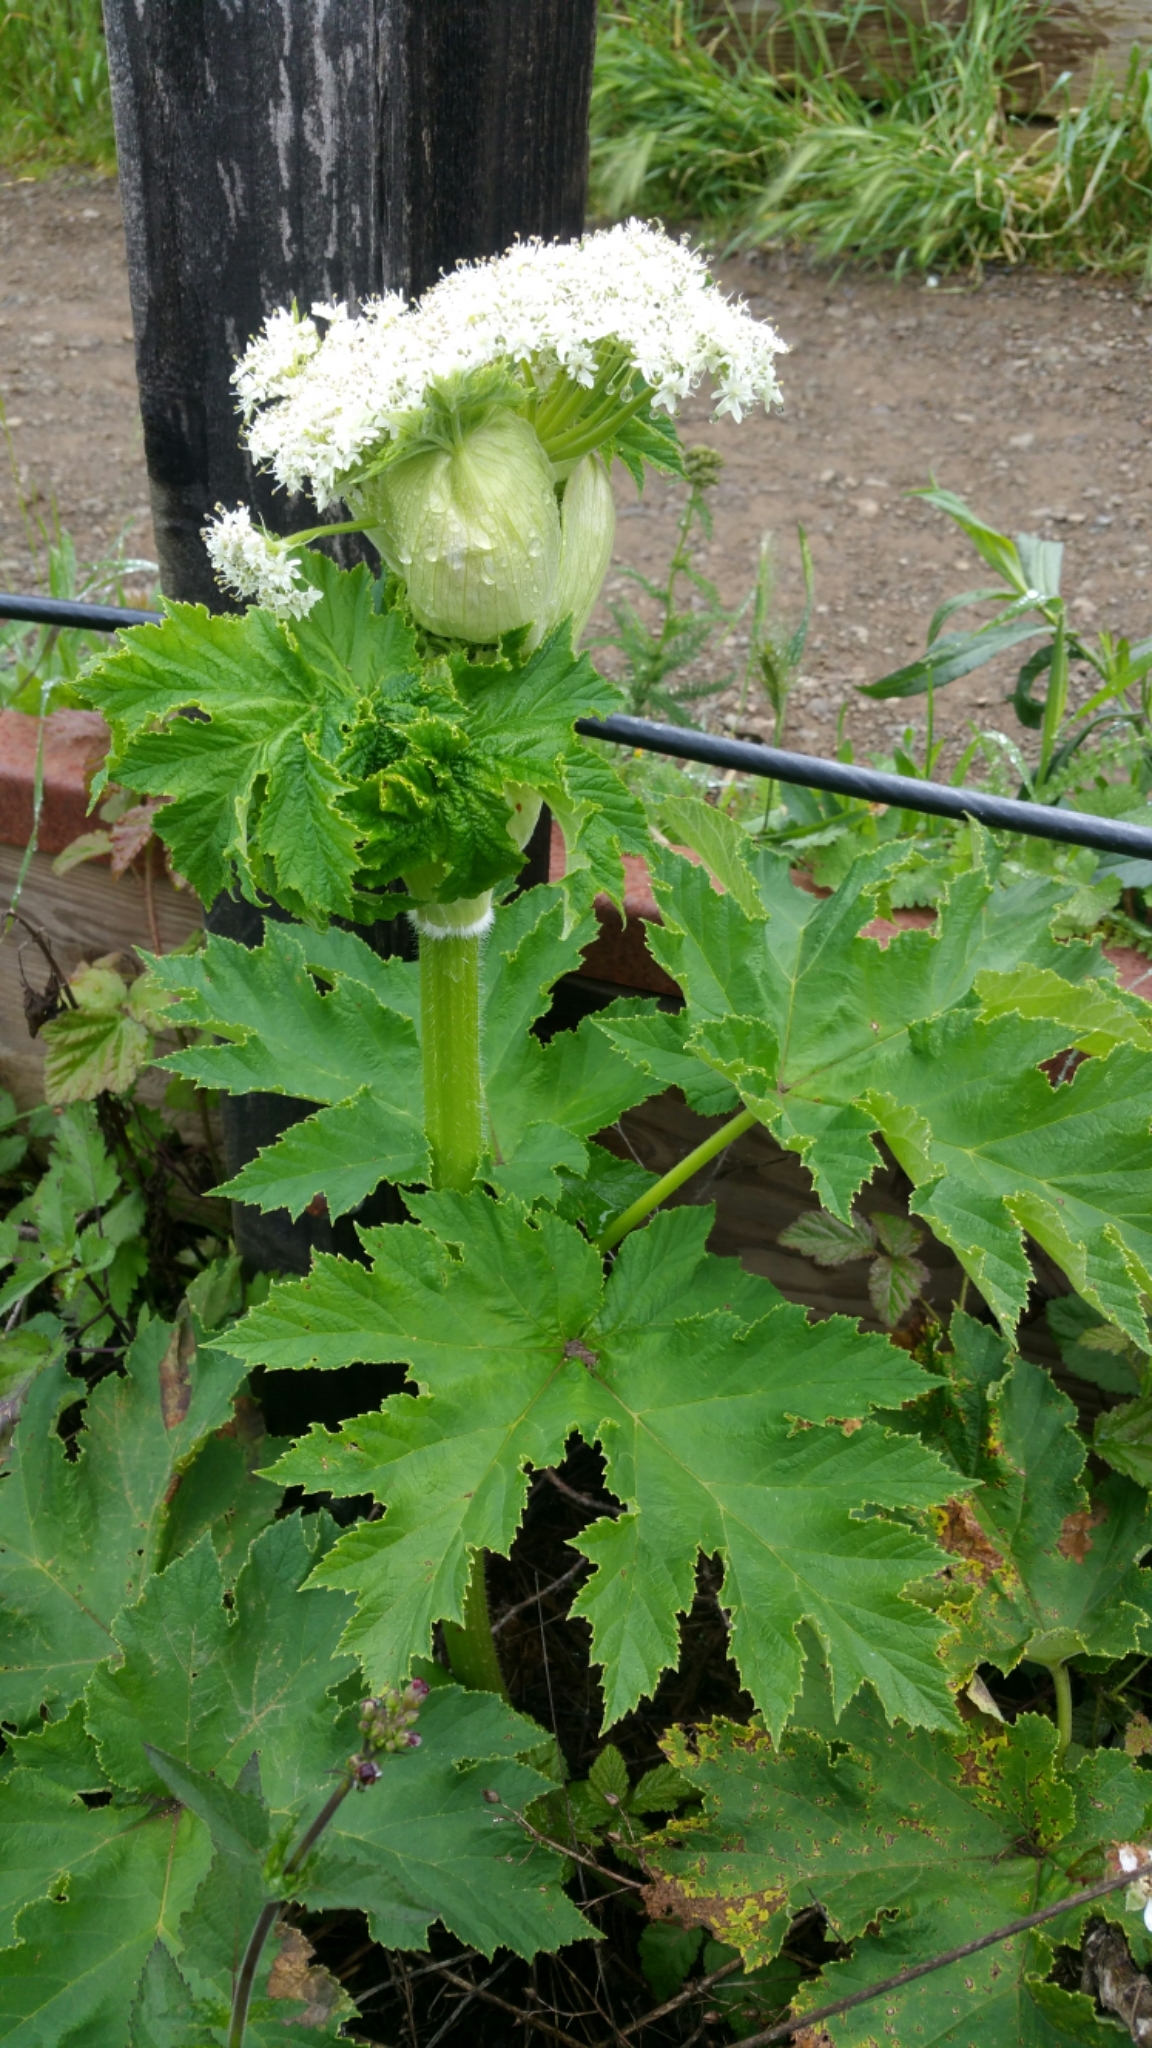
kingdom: Plantae
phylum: Tracheophyta
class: Magnoliopsida
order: Apiales
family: Apiaceae
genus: Heracleum
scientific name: Heracleum maximum
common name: American cow parsnip
